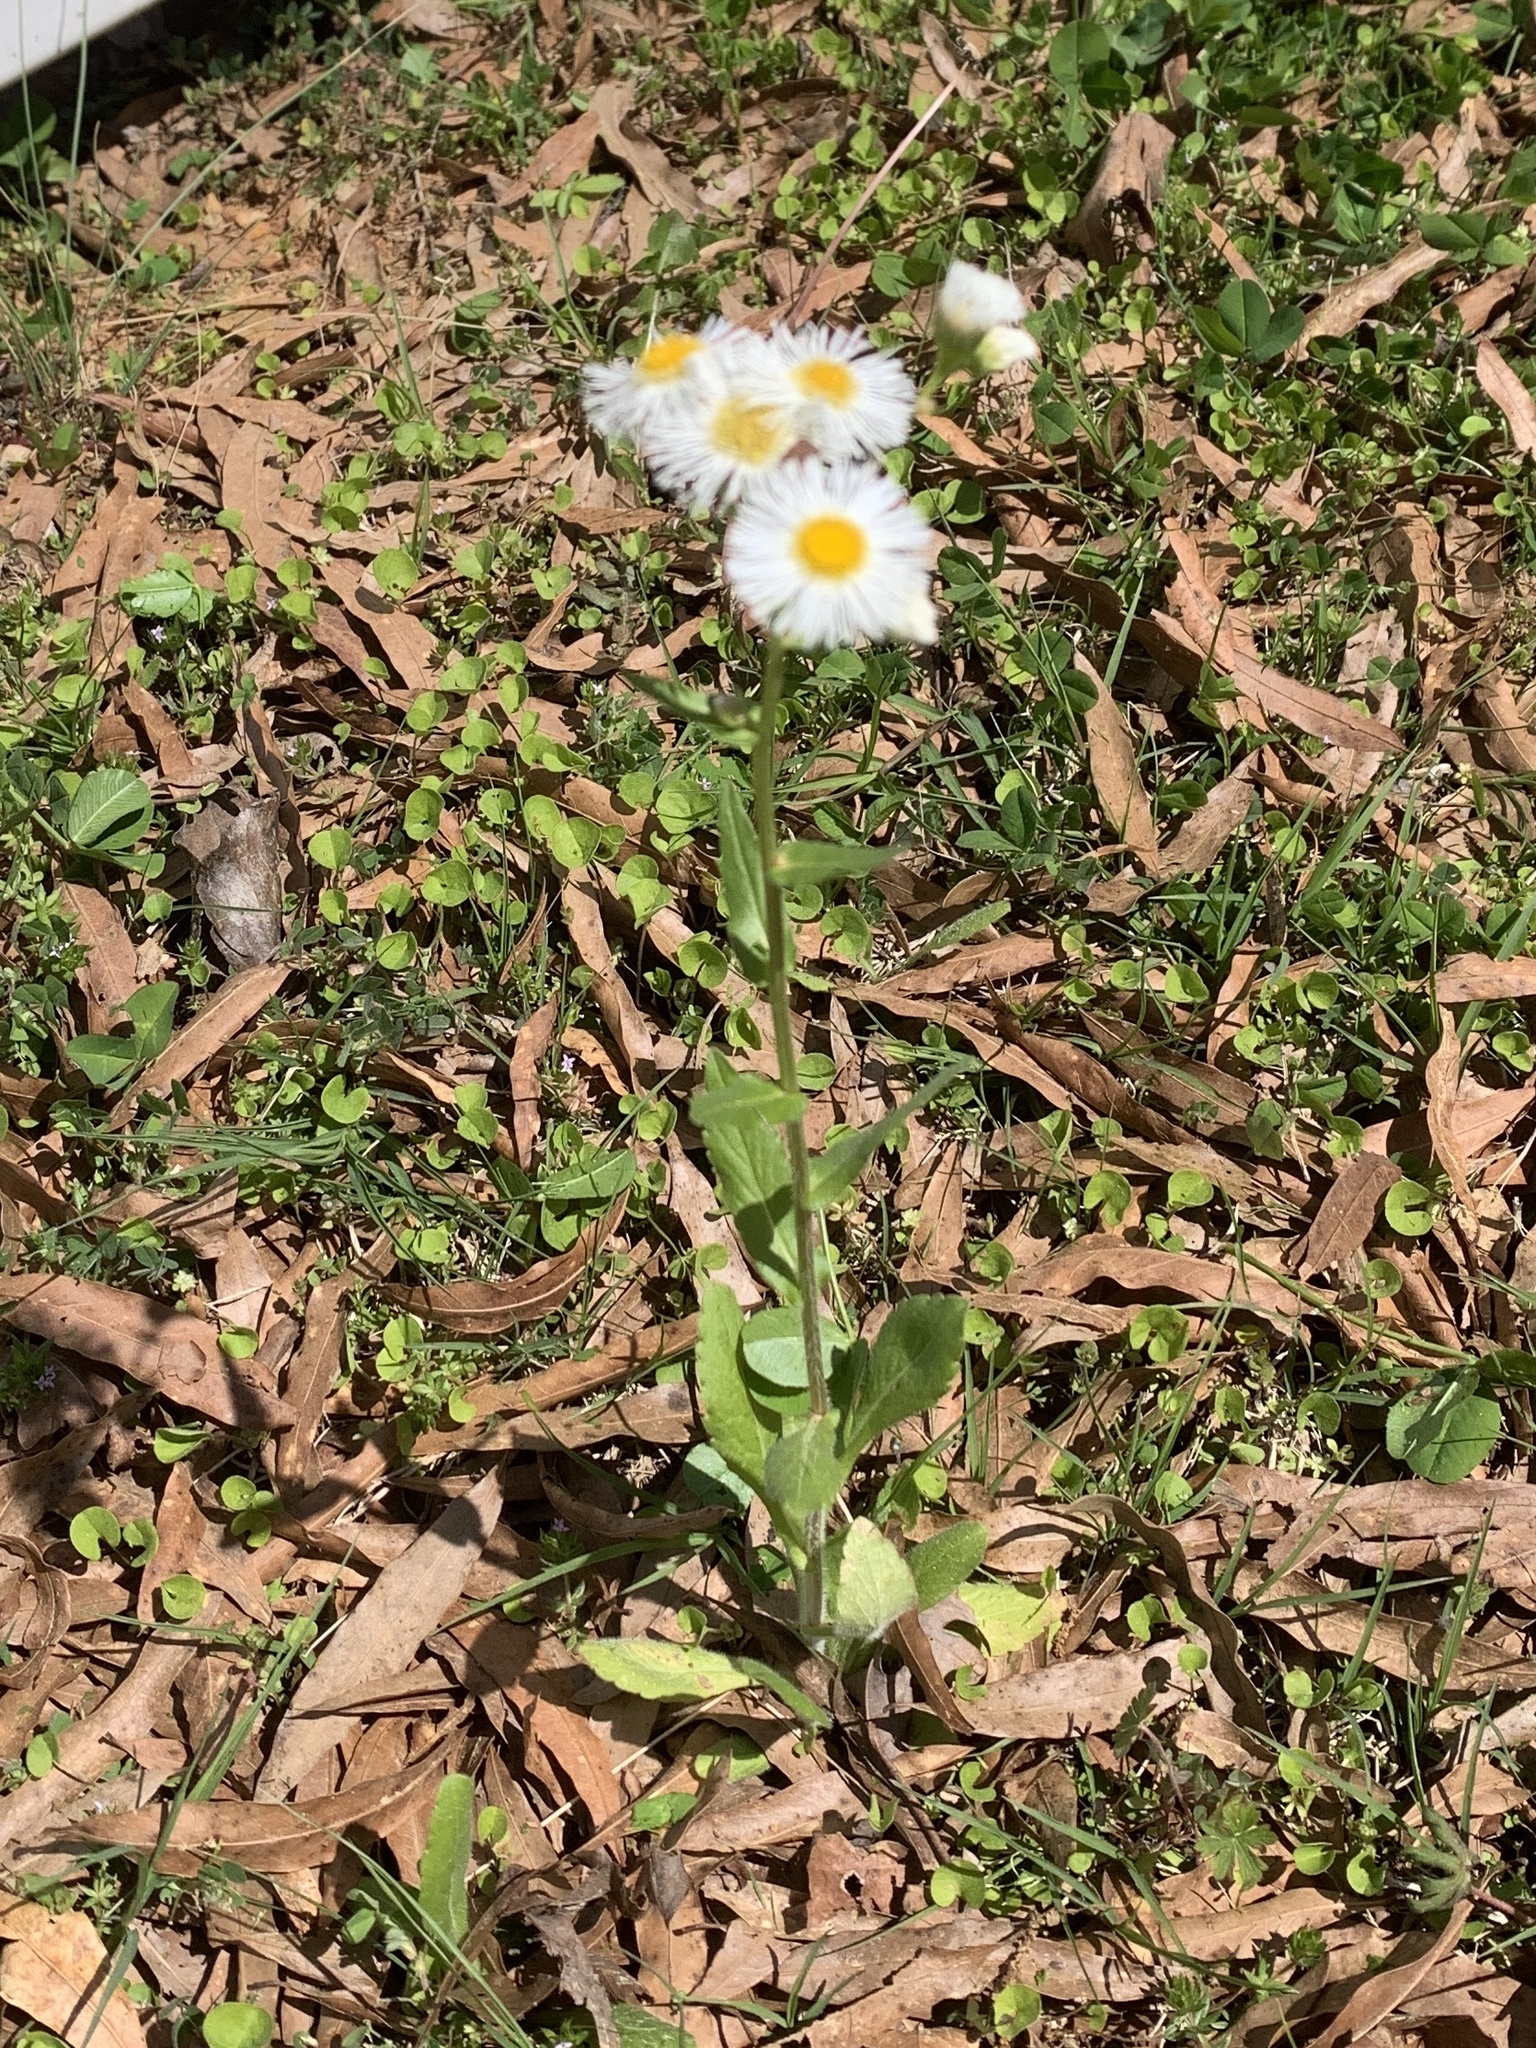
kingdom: Plantae
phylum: Tracheophyta
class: Magnoliopsida
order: Asterales
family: Asteraceae
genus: Erigeron
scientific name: Erigeron philadelphicus
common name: Robin's-plantain
